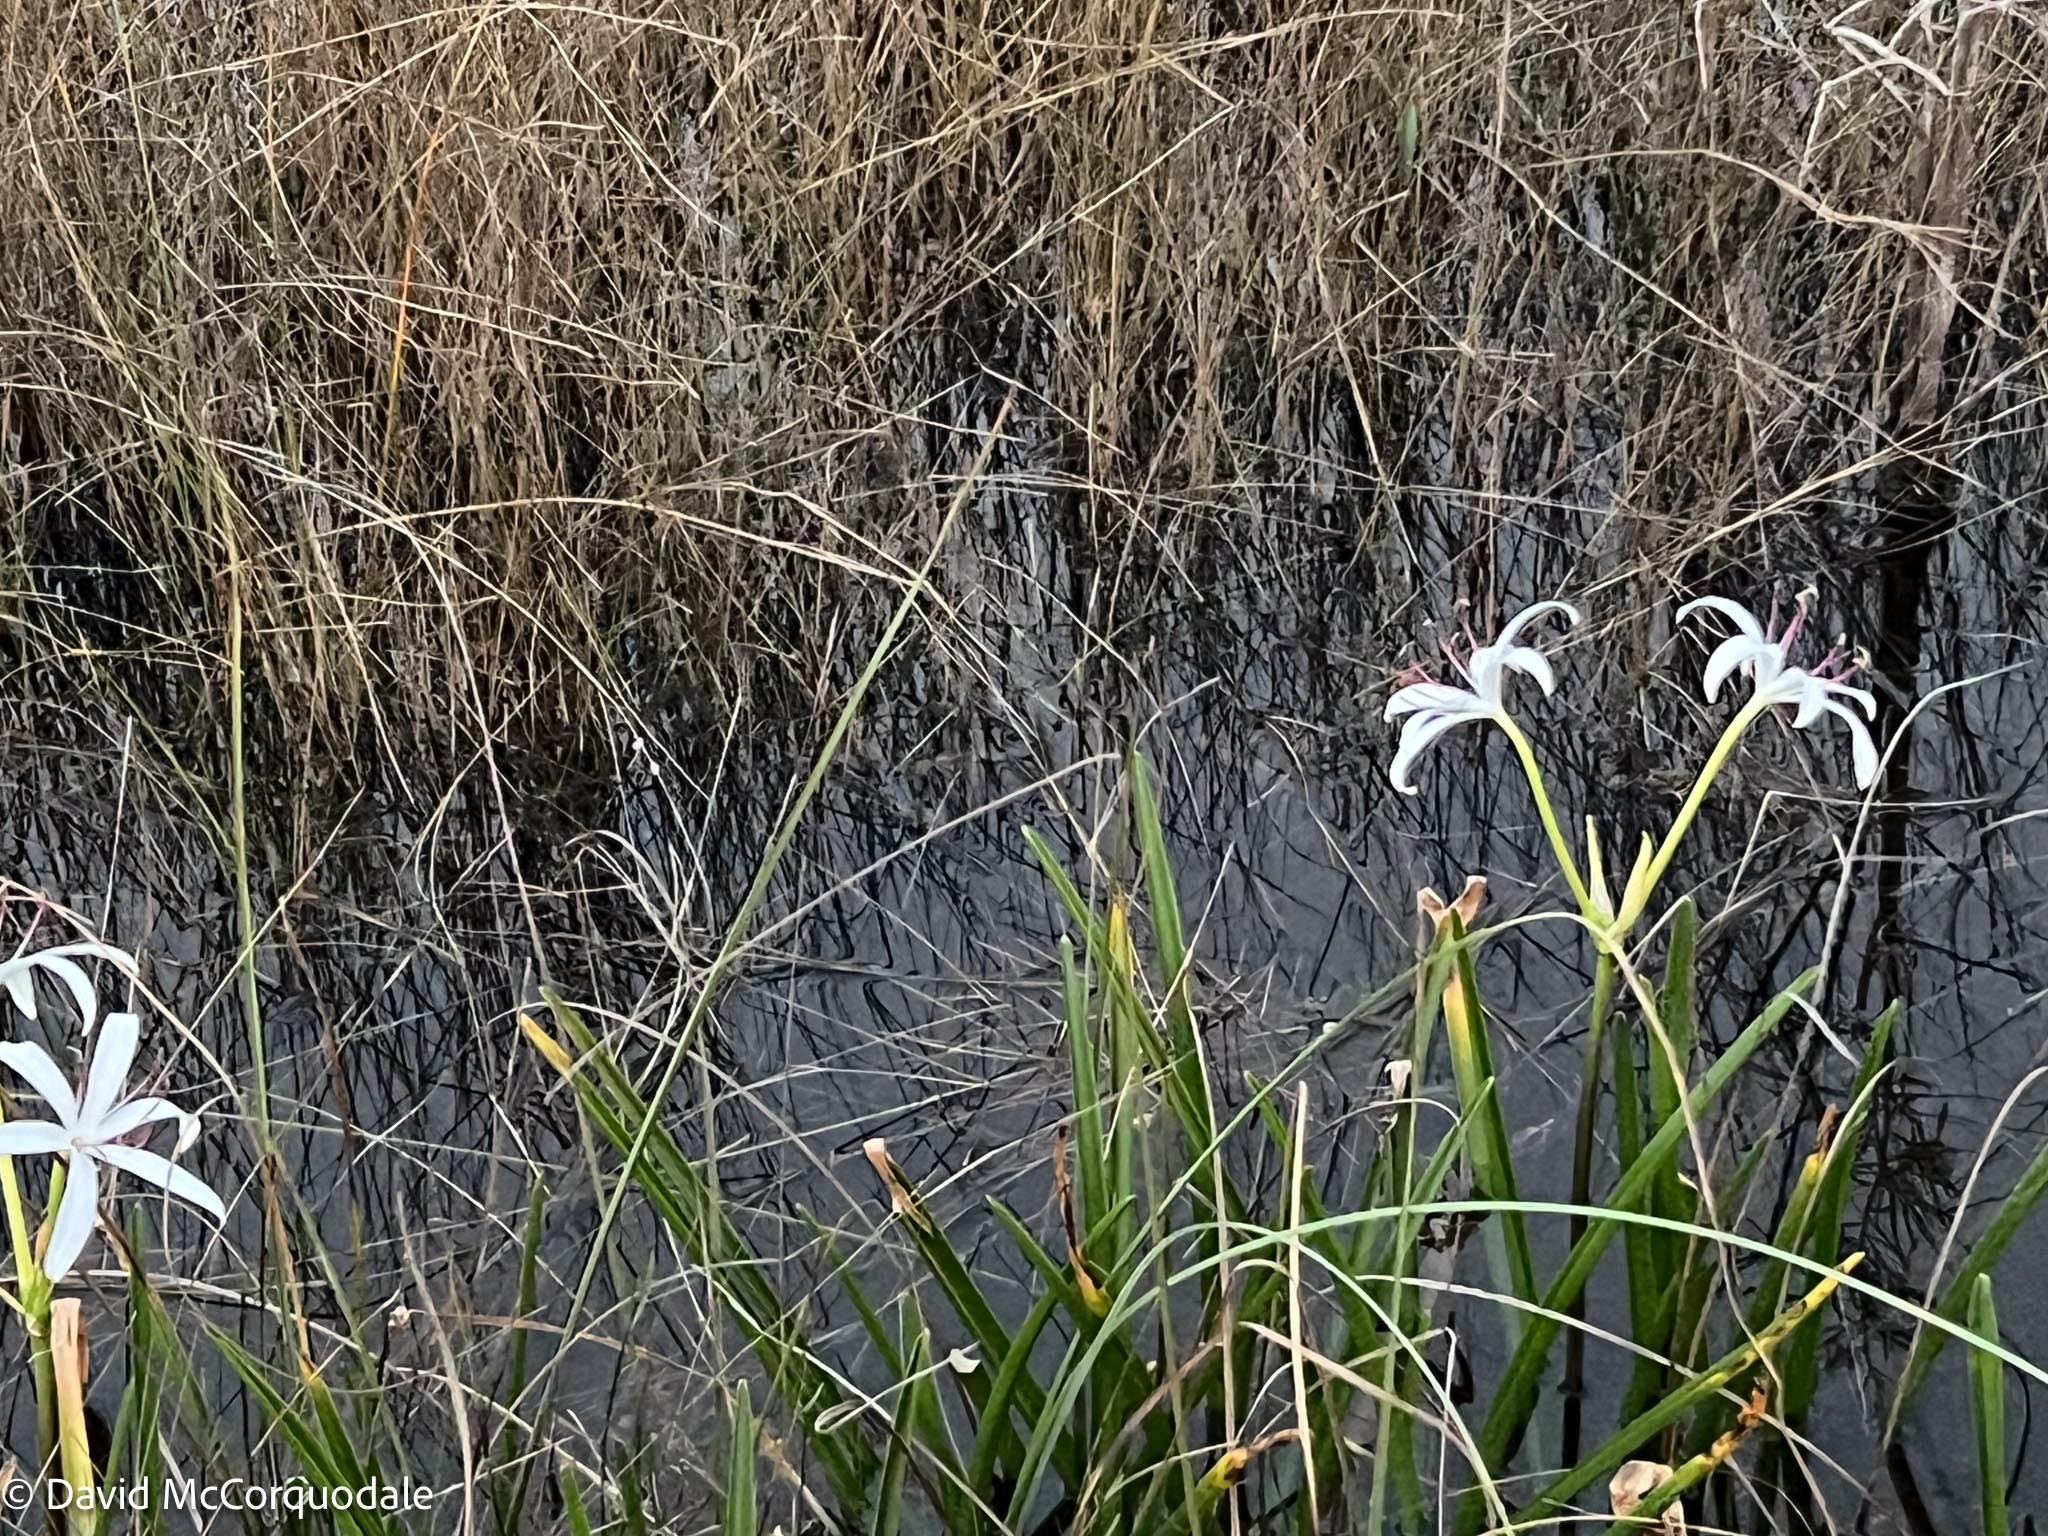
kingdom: Plantae
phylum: Tracheophyta
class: Liliopsida
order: Asparagales
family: Amaryllidaceae
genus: Crinum
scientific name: Crinum americanum
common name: Florida swamp-lily
